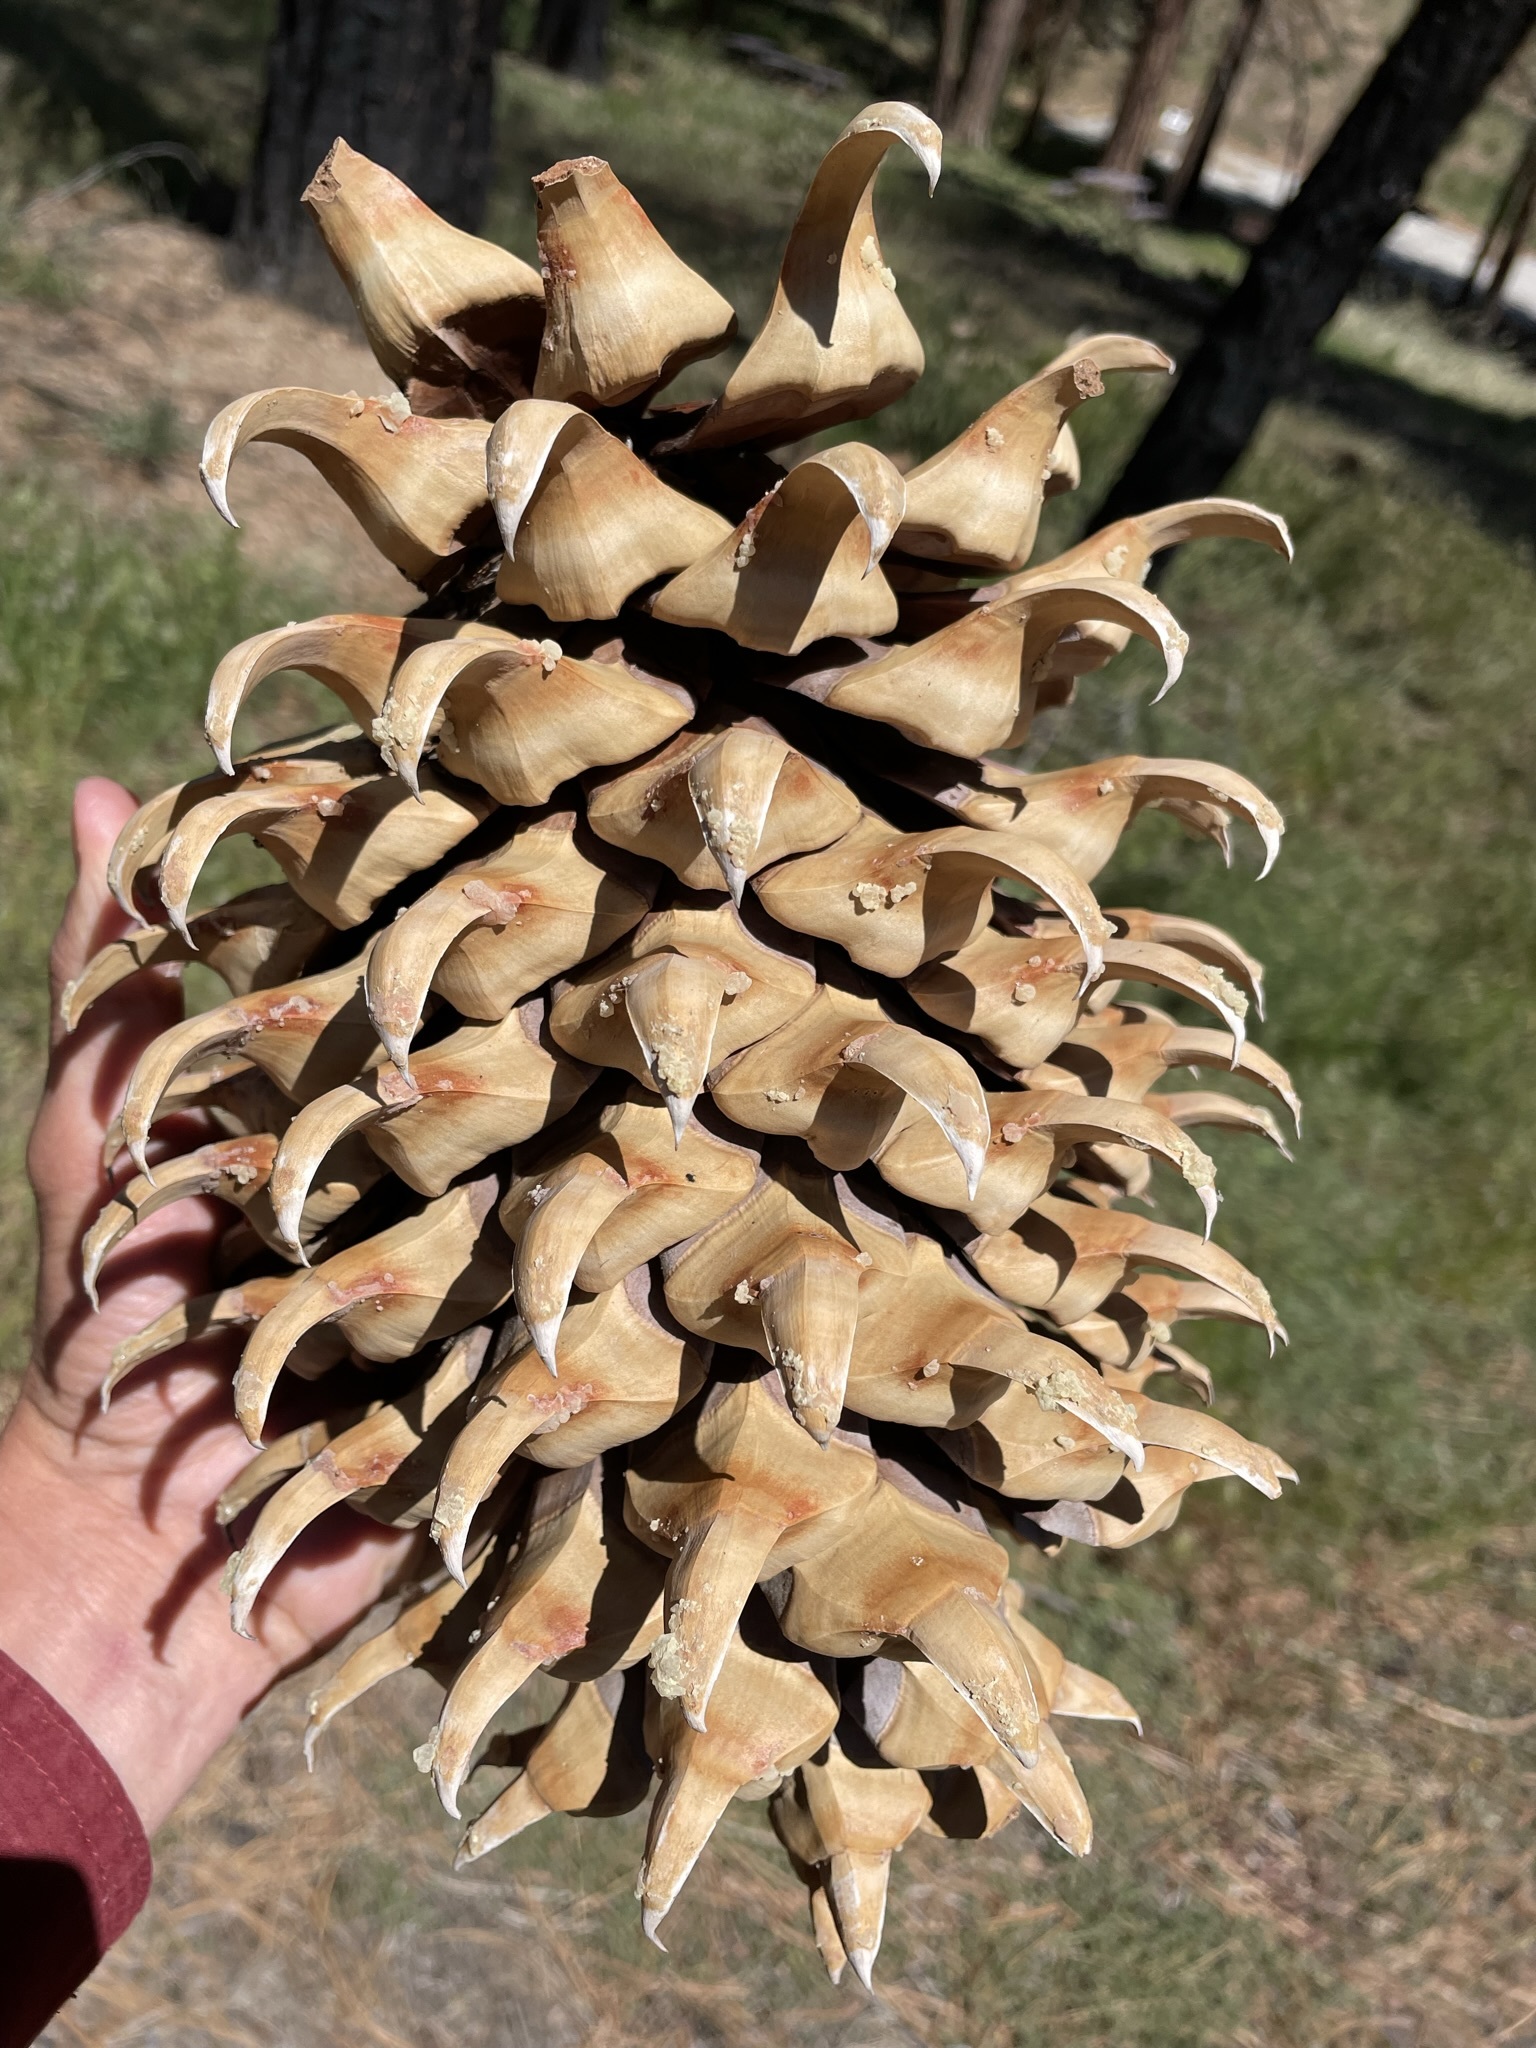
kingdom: Plantae
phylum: Tracheophyta
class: Pinopsida
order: Pinales
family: Pinaceae
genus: Pinus
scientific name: Pinus coulteri
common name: Coulter pine
